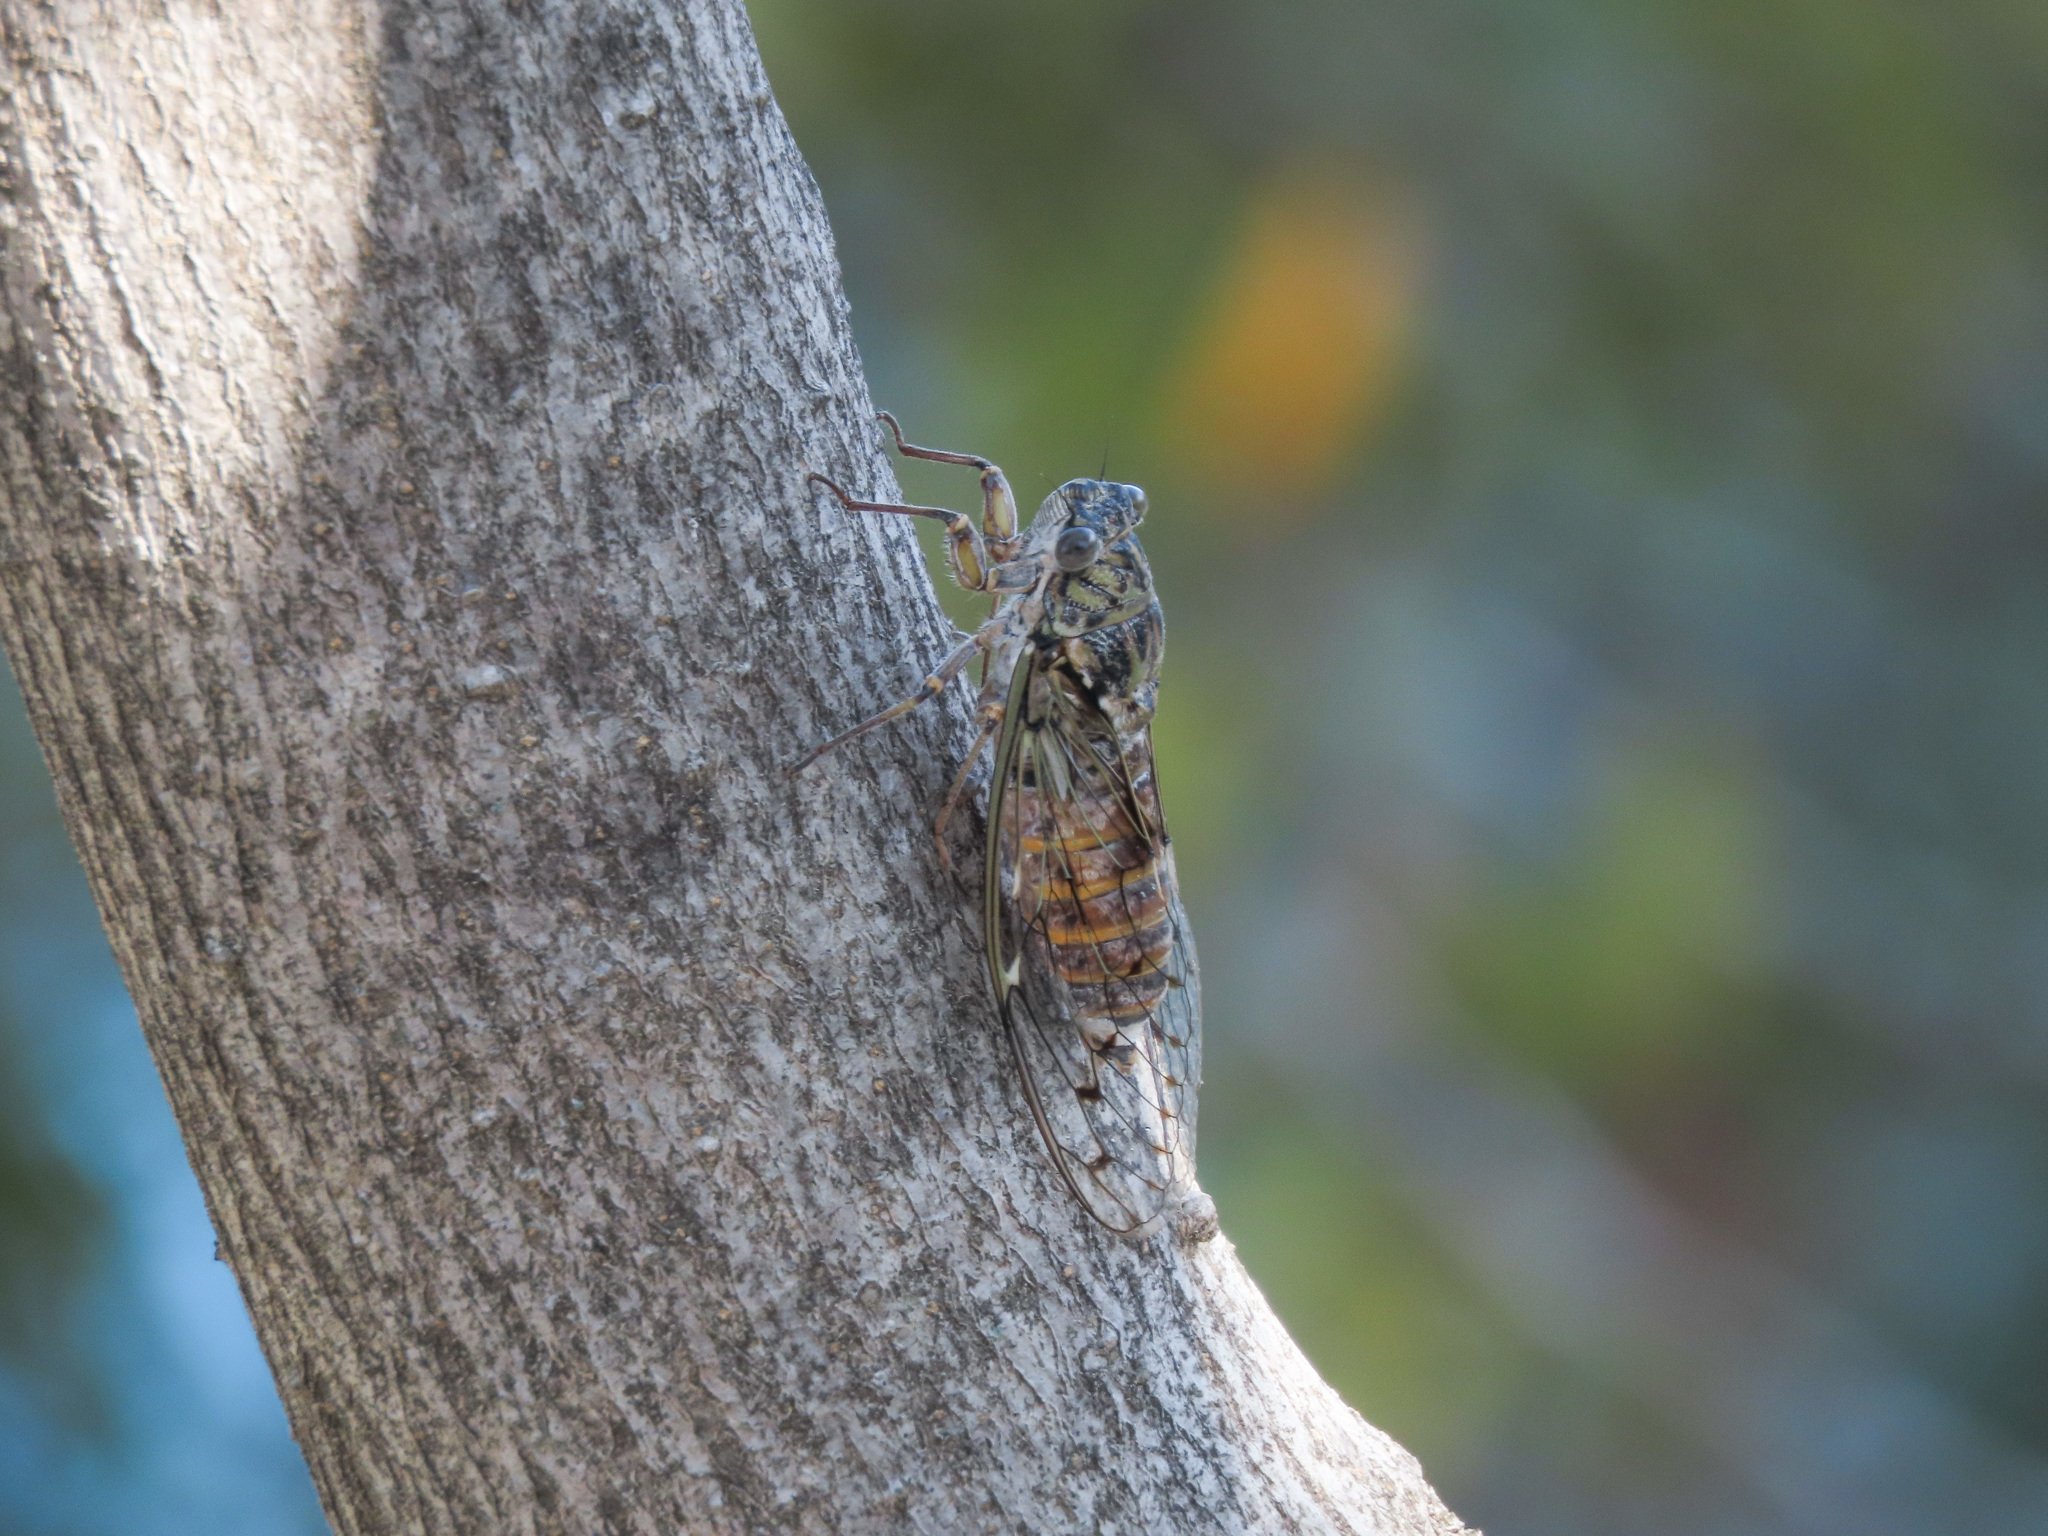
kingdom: Animalia
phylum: Arthropoda
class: Insecta
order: Hemiptera
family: Cicadidae
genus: Cicada
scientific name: Cicada orni
